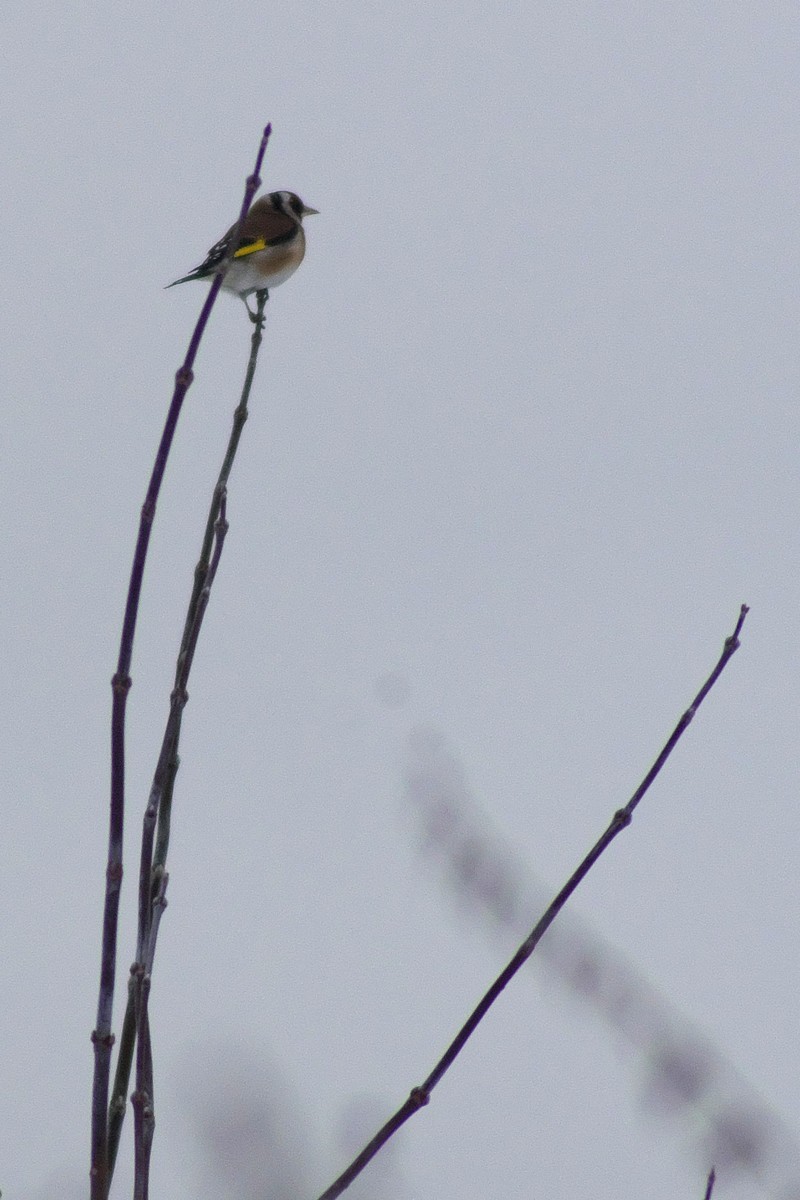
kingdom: Animalia
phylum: Chordata
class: Aves
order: Passeriformes
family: Fringillidae
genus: Carduelis
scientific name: Carduelis carduelis
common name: European goldfinch
